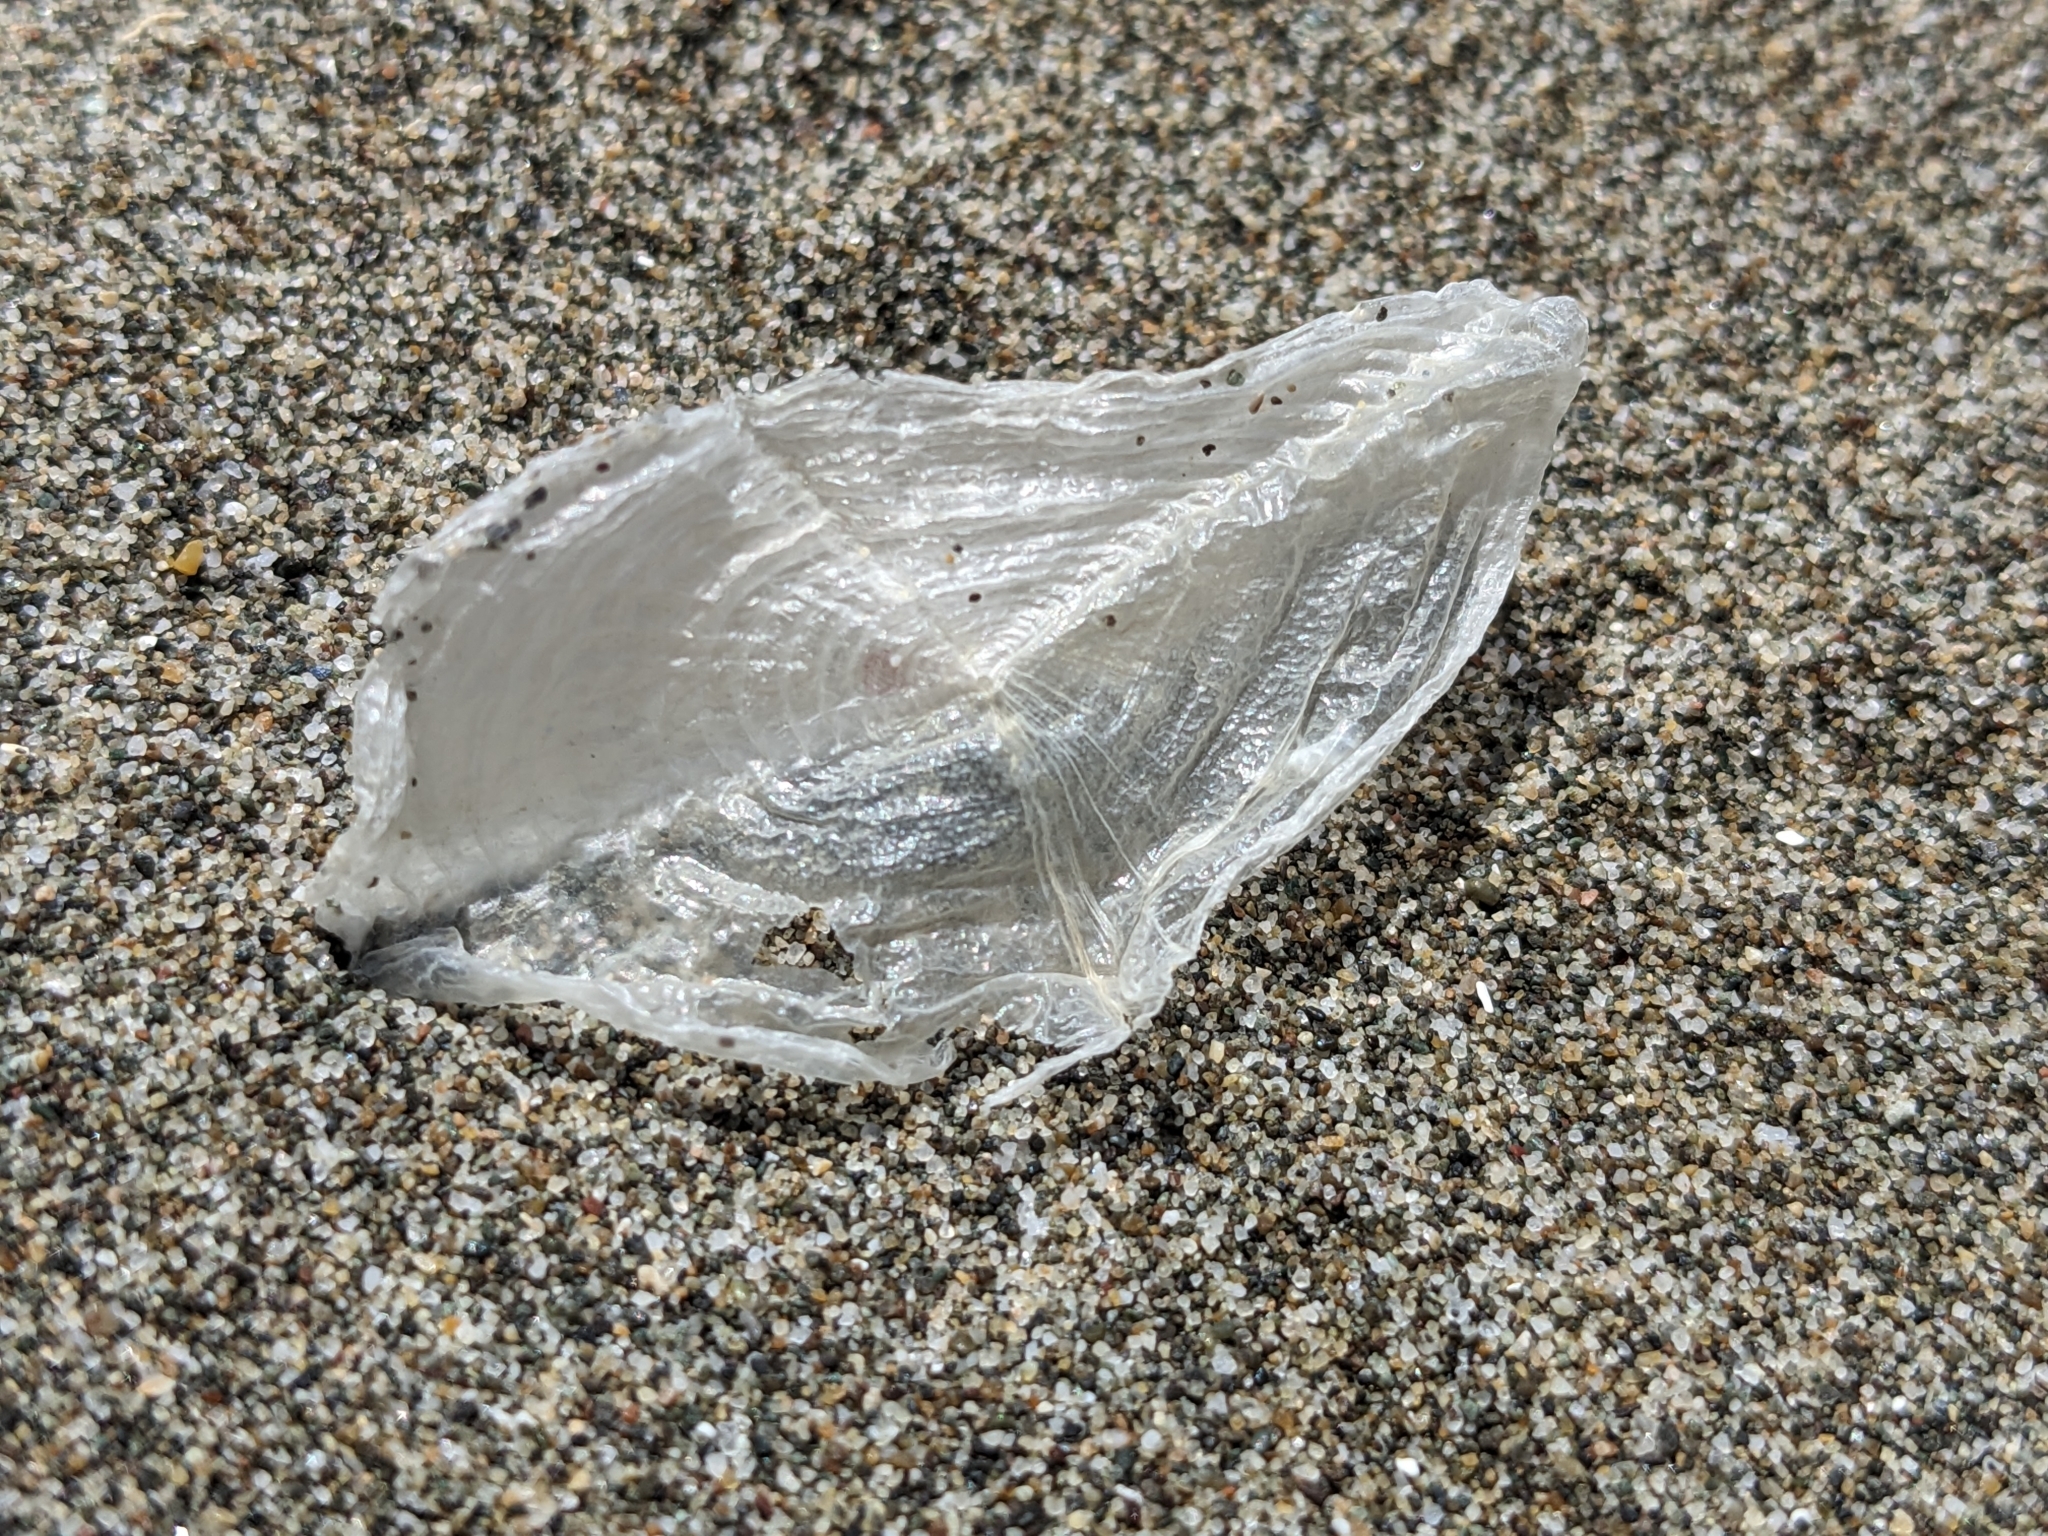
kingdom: Animalia
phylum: Cnidaria
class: Hydrozoa
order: Anthoathecata
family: Porpitidae
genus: Velella
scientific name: Velella velella
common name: By-the-wind-sailor
